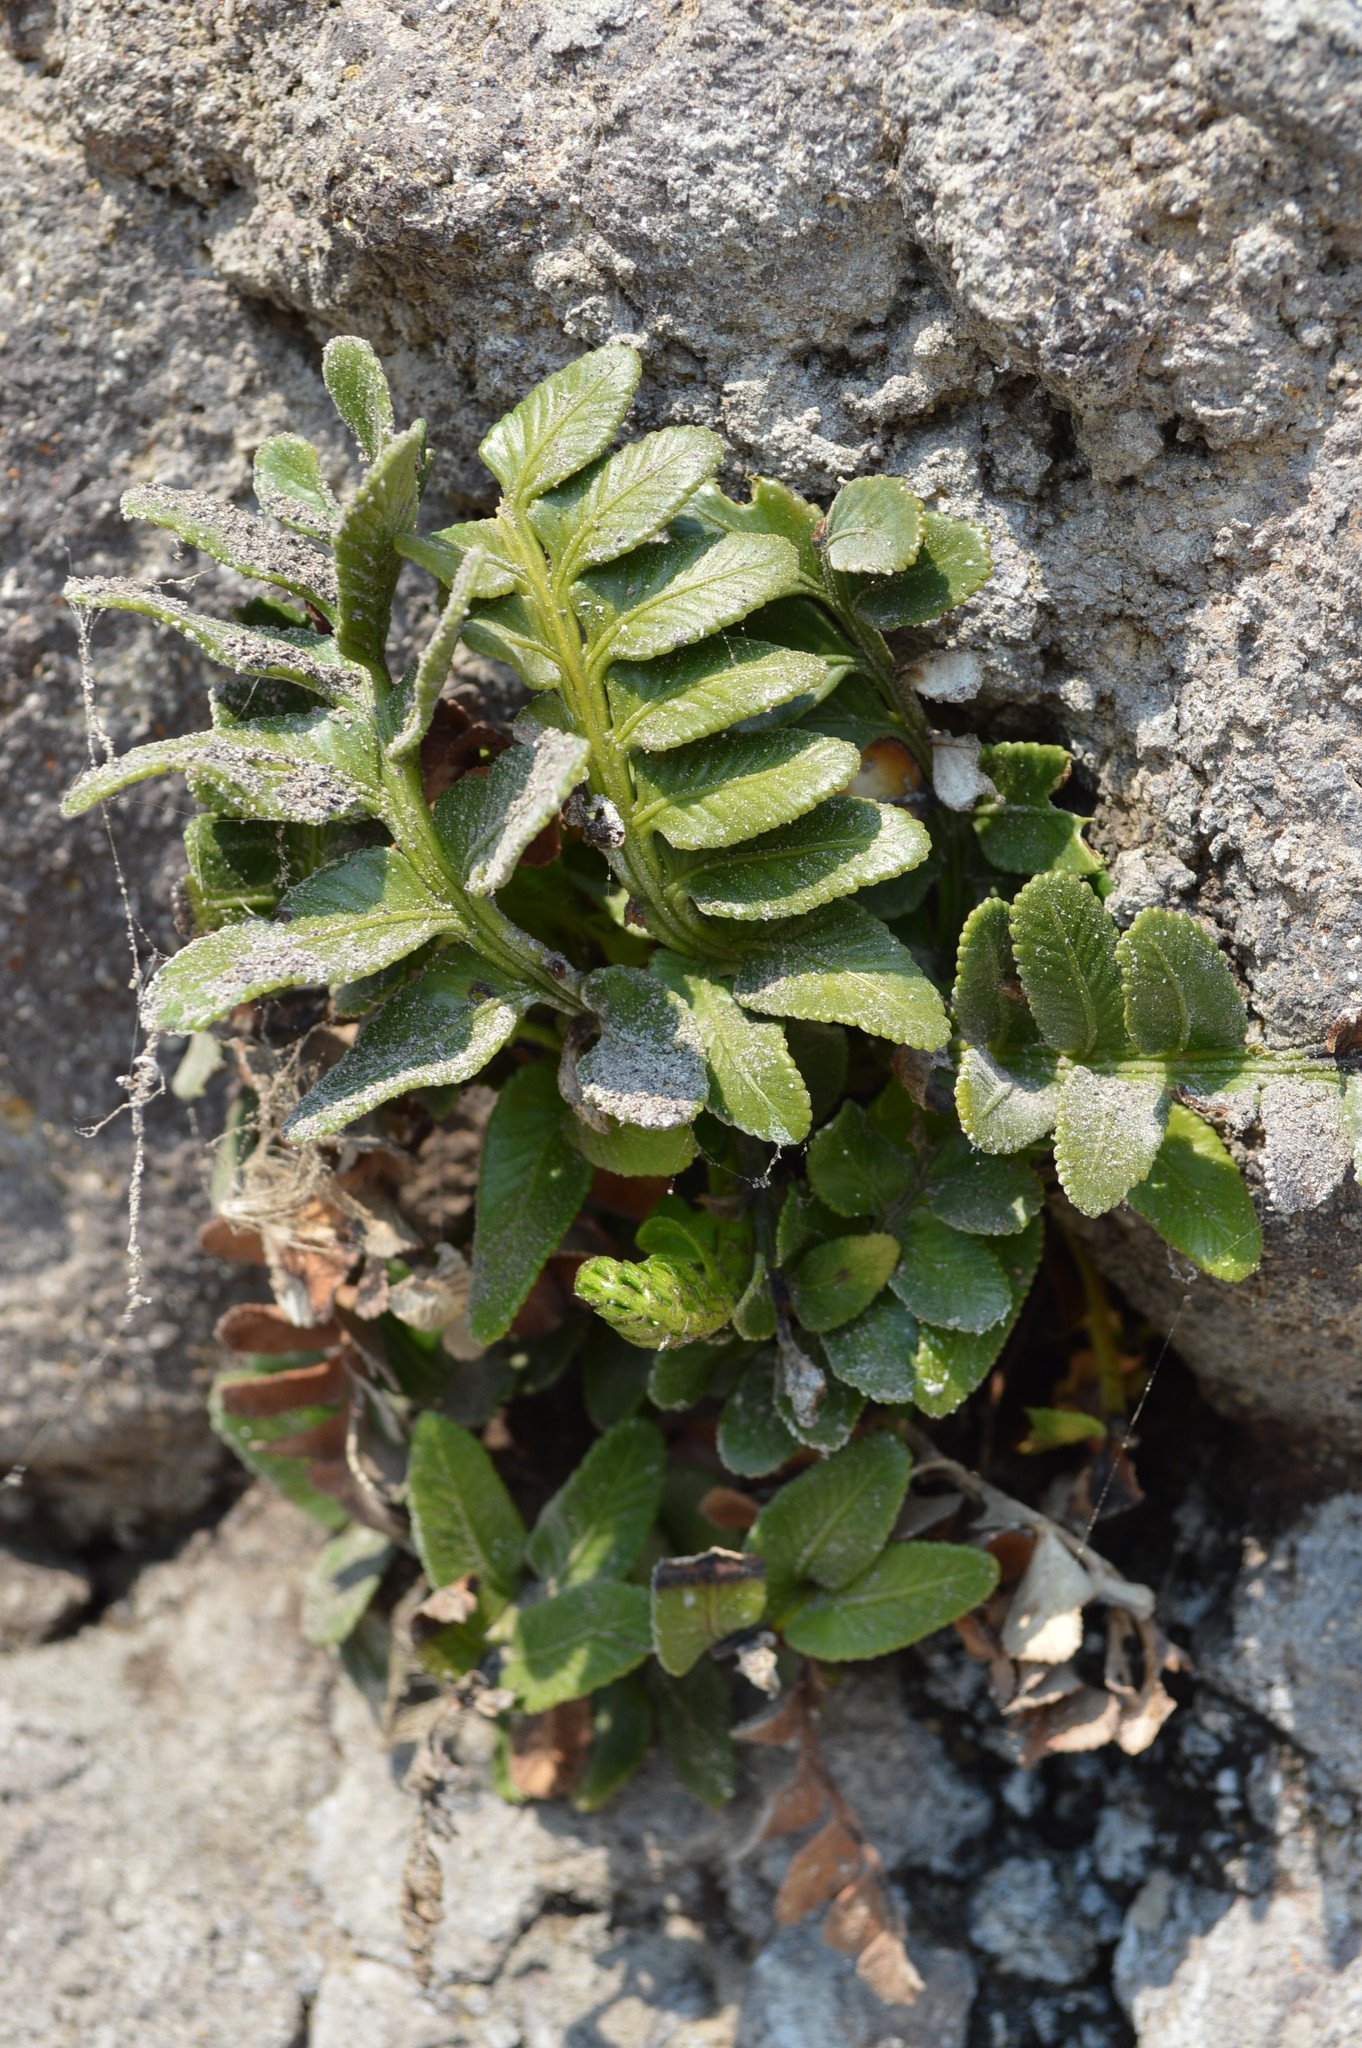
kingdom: Plantae
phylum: Tracheophyta
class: Polypodiopsida
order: Polypodiales
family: Aspleniaceae
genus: Asplenium
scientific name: Asplenium obtusatum
